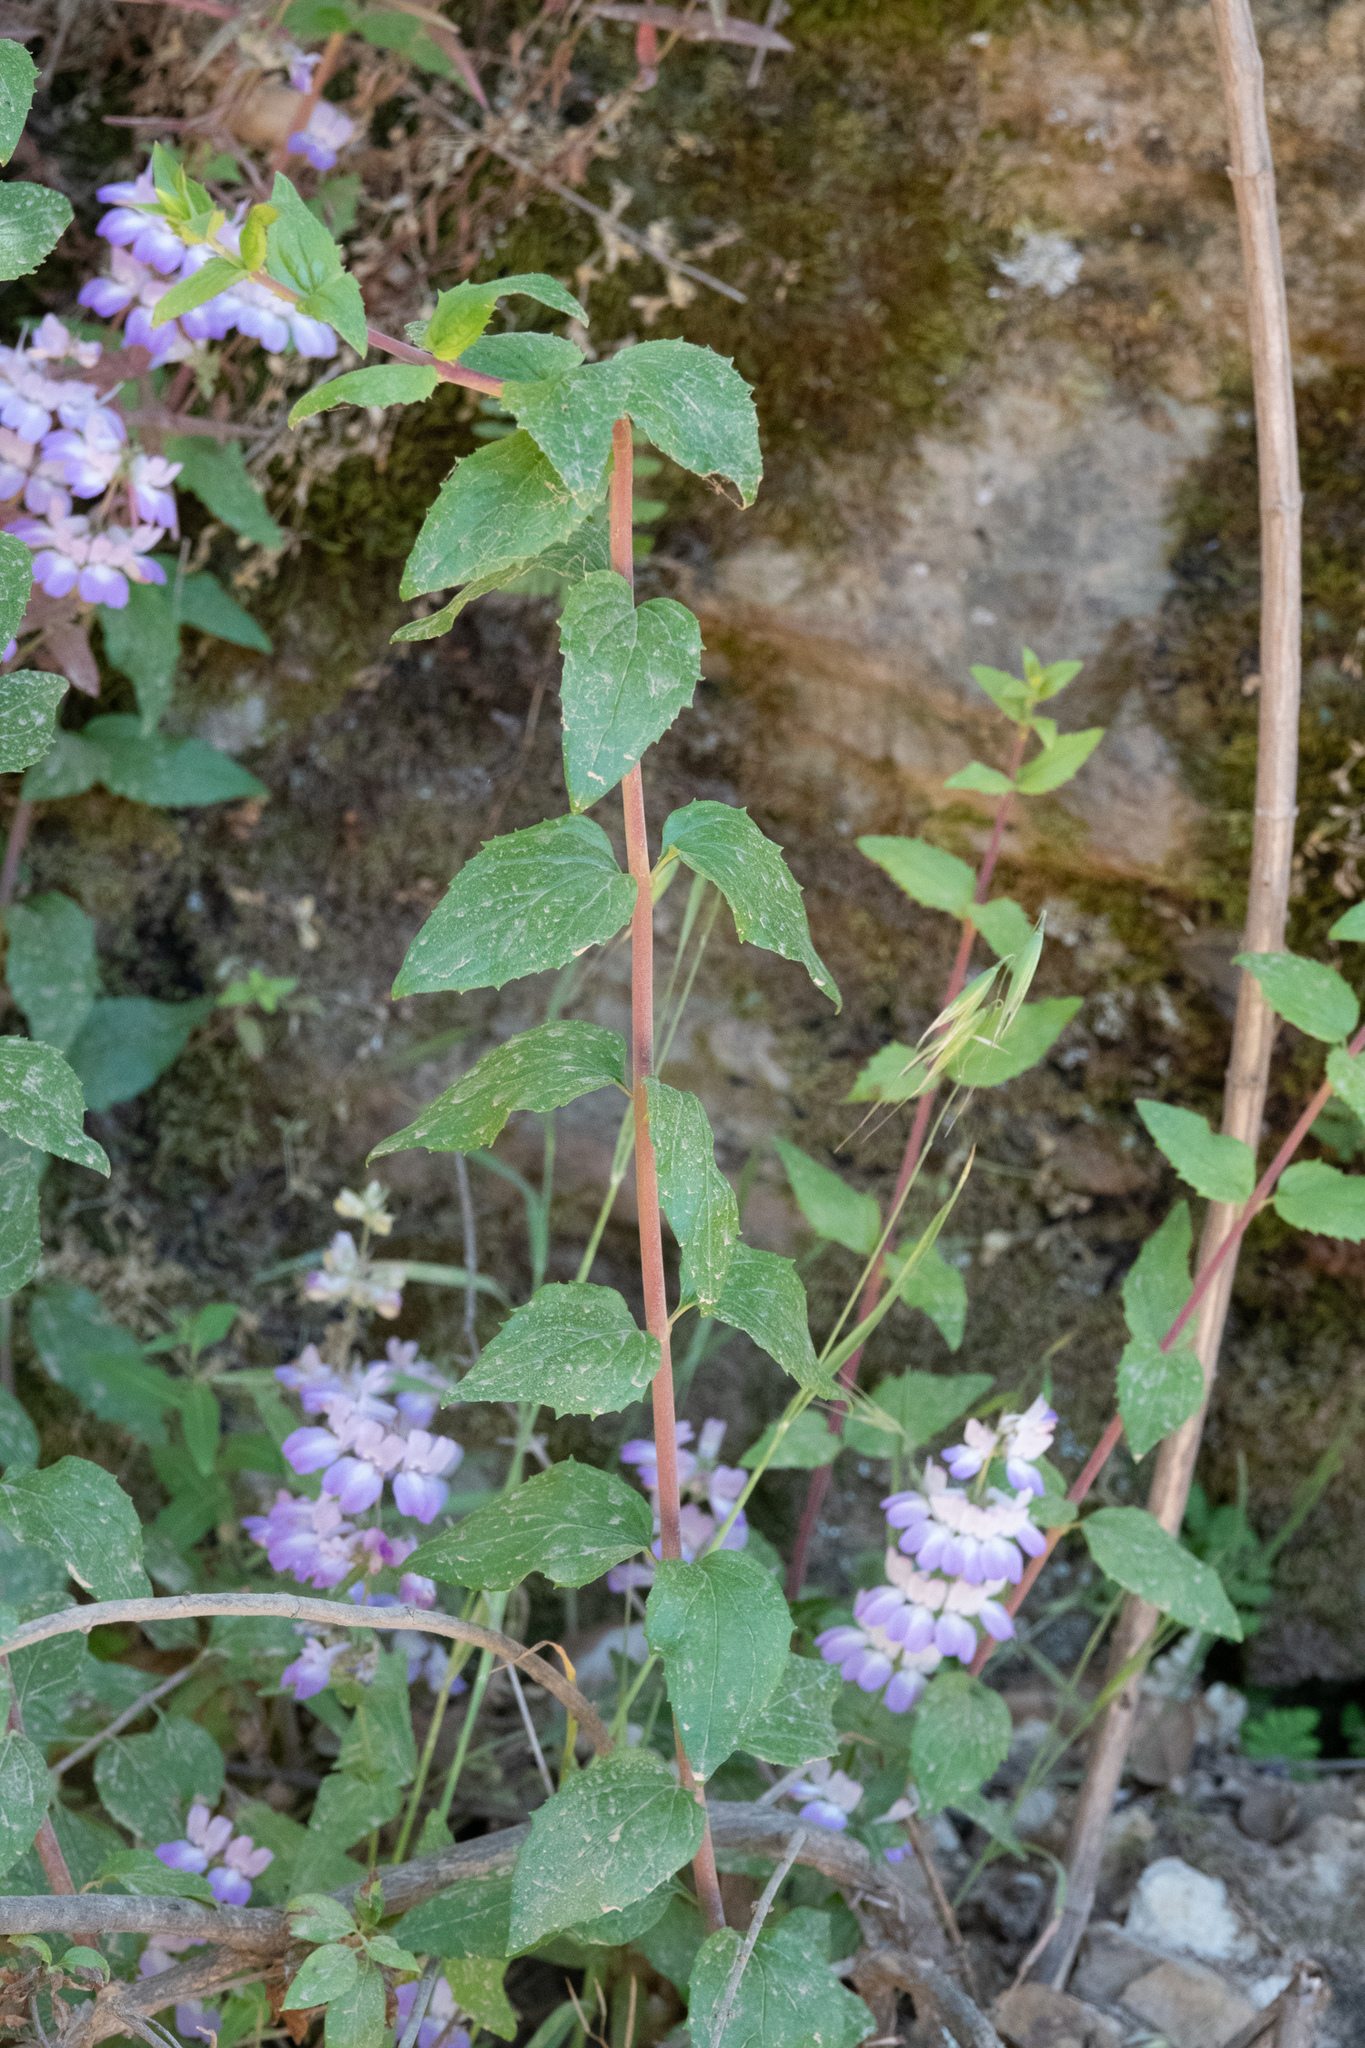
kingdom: Plantae
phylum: Tracheophyta
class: Magnoliopsida
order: Lamiales
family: Plantaginaceae
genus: Keckiella
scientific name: Keckiella cordifolia
